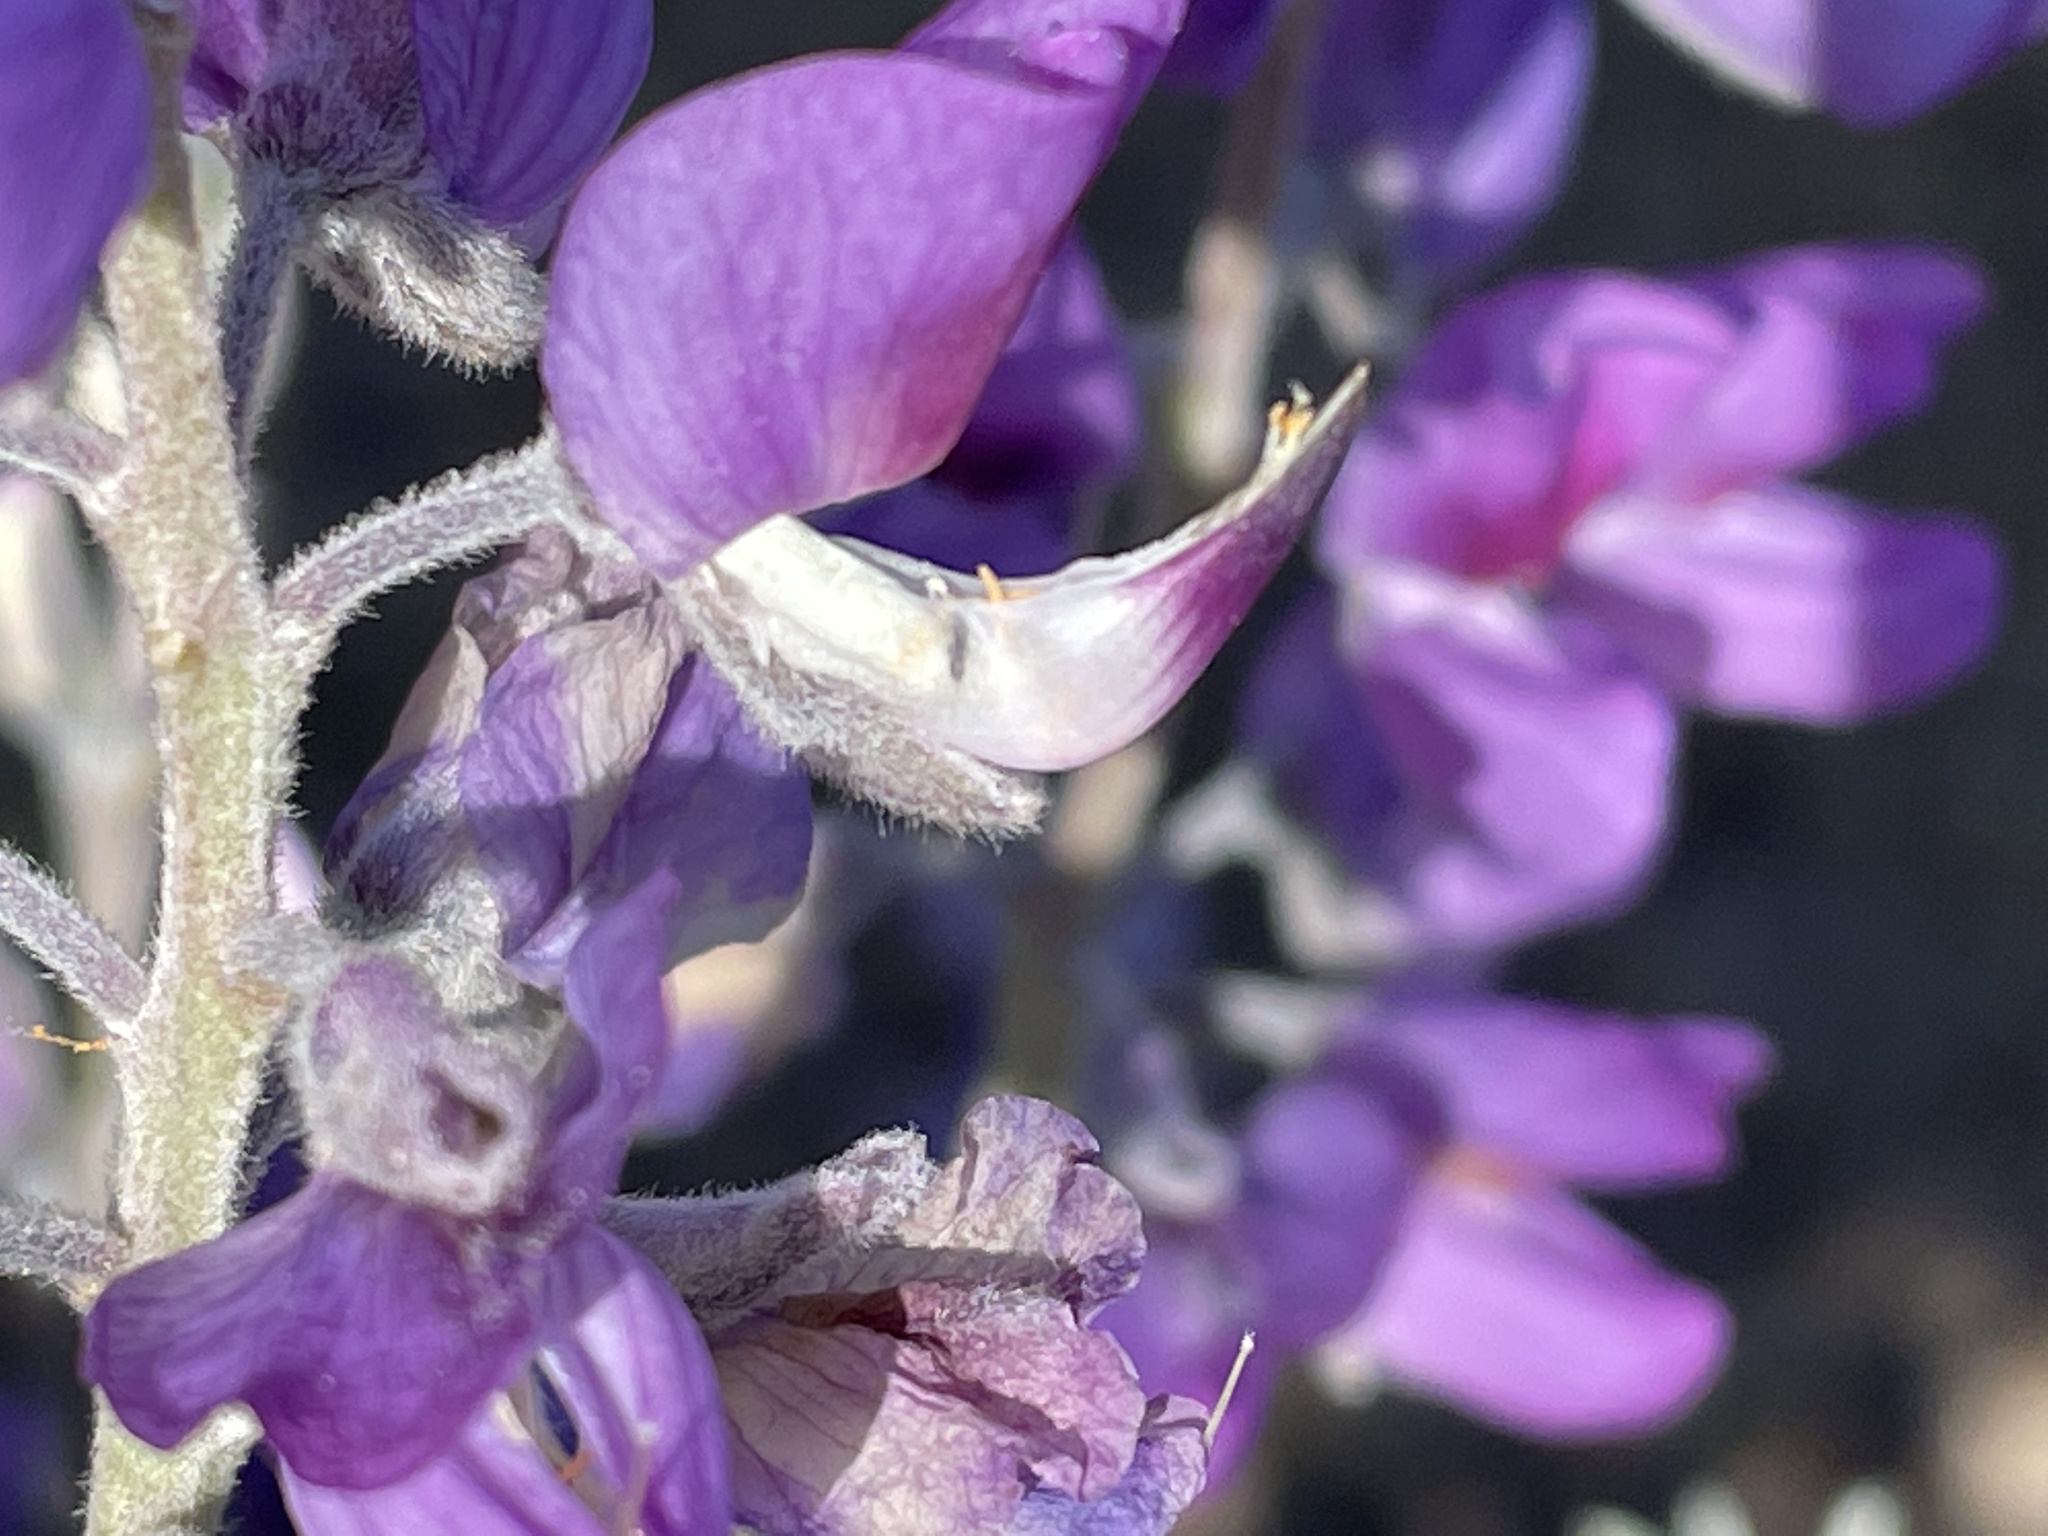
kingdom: Plantae
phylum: Tracheophyta
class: Magnoliopsida
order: Fabales
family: Fabaceae
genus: Lupinus
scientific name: Lupinus chamissonis
